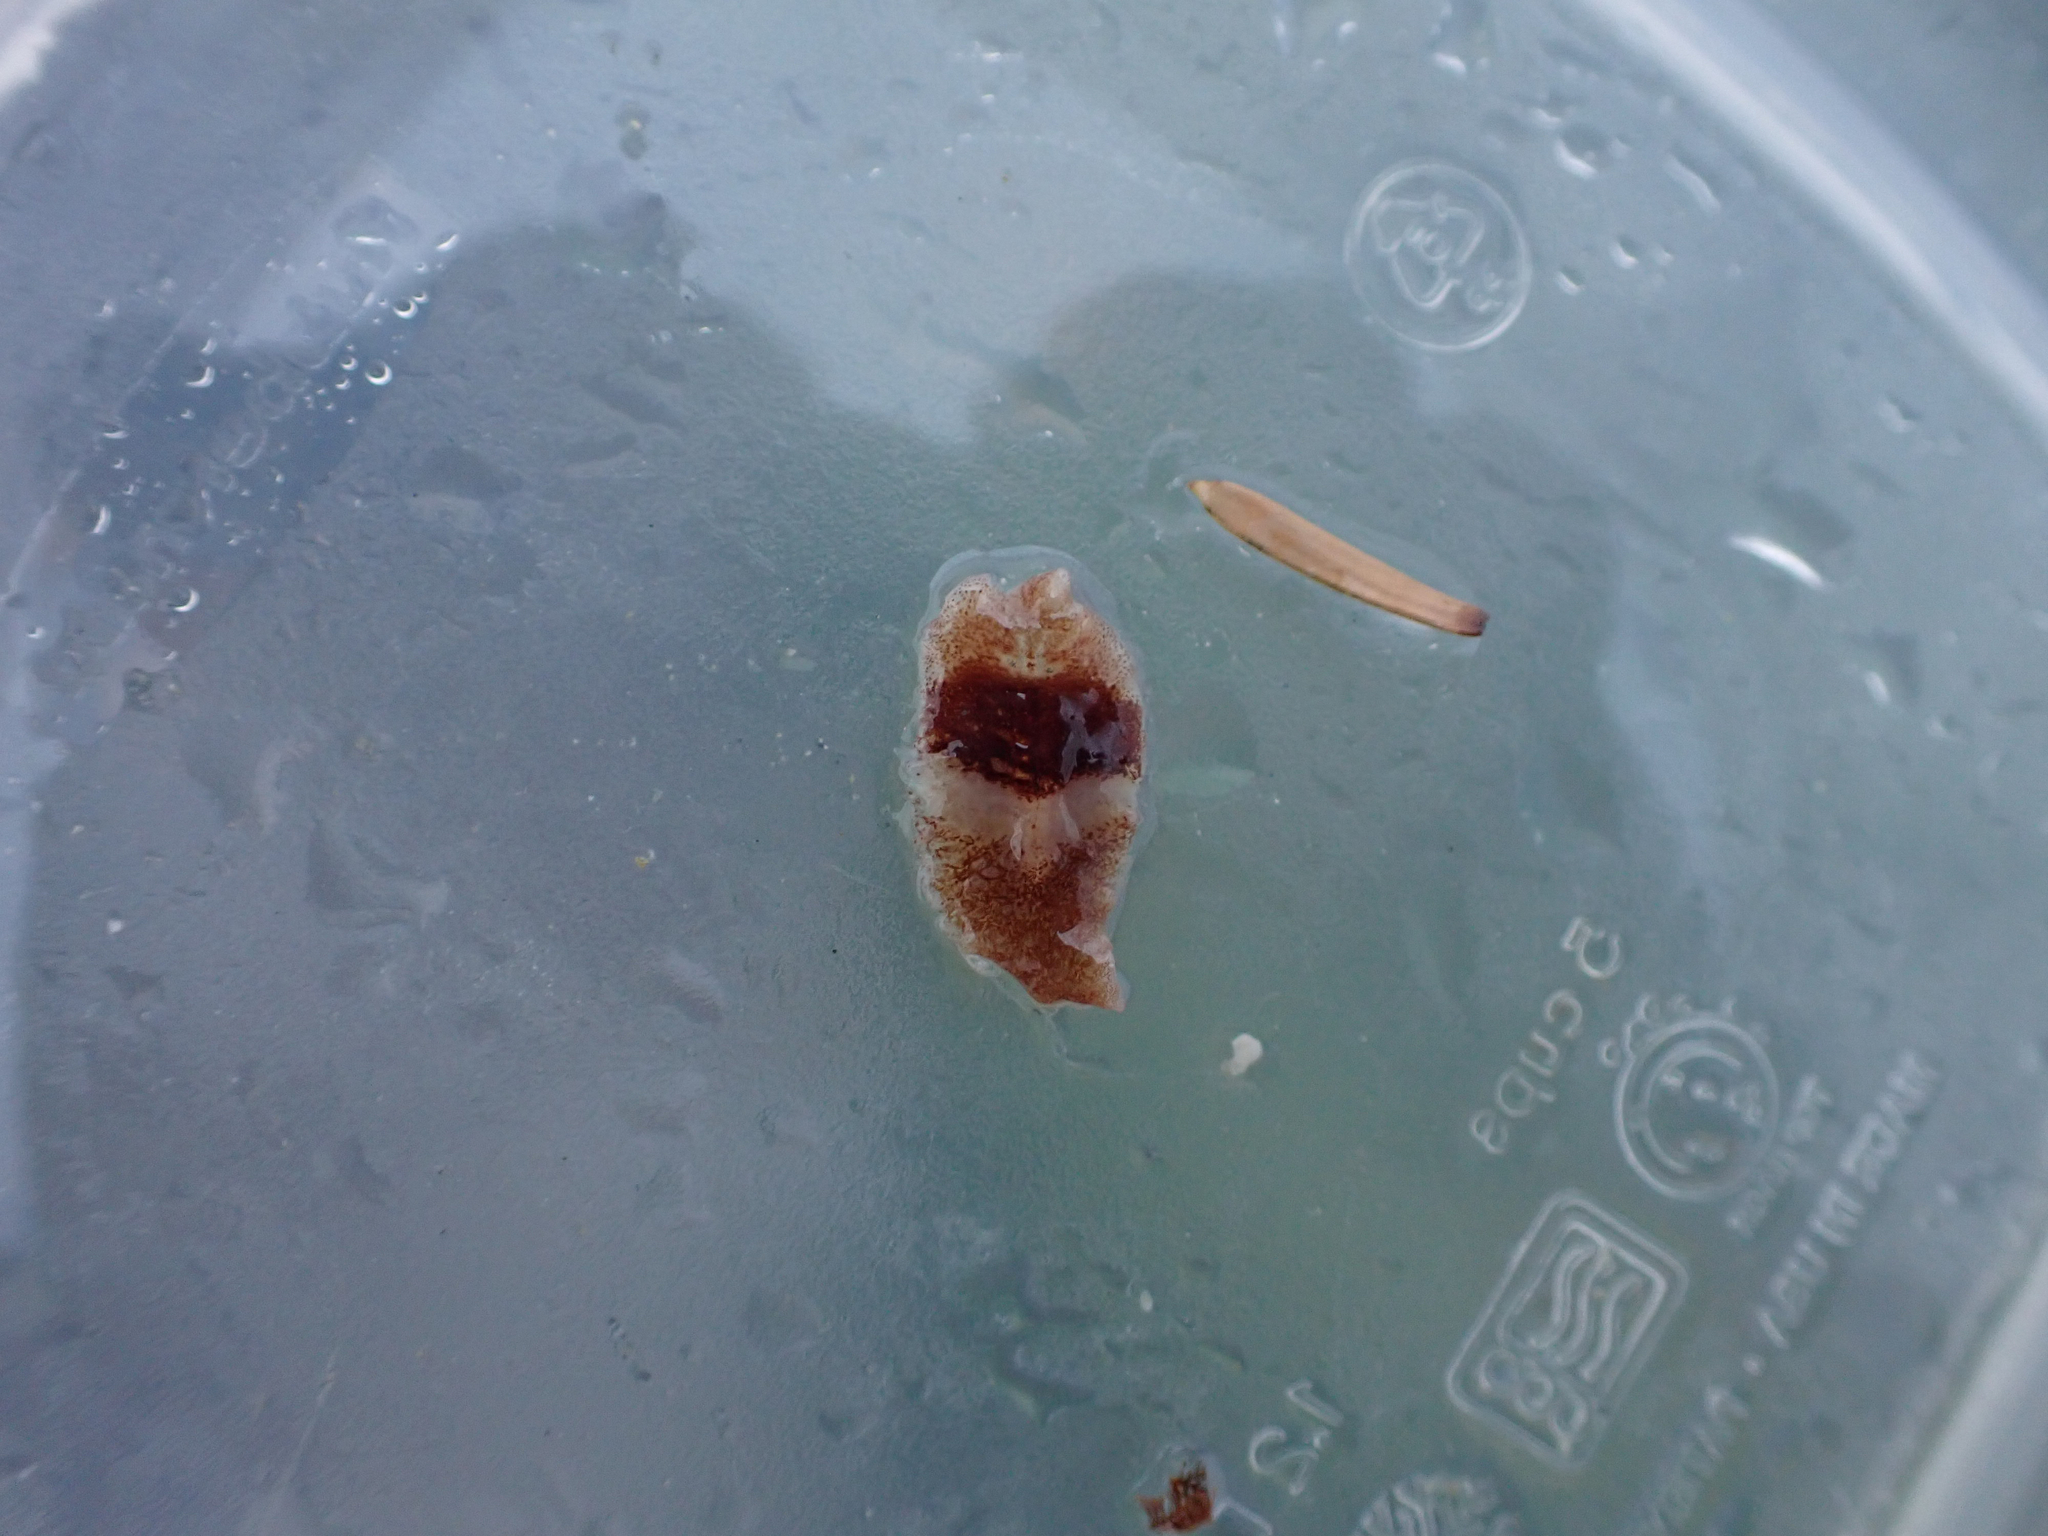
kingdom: Animalia
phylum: Platyhelminthes
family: Notocomplanidae
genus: Notocomplana
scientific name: Notocomplana sanguinea
